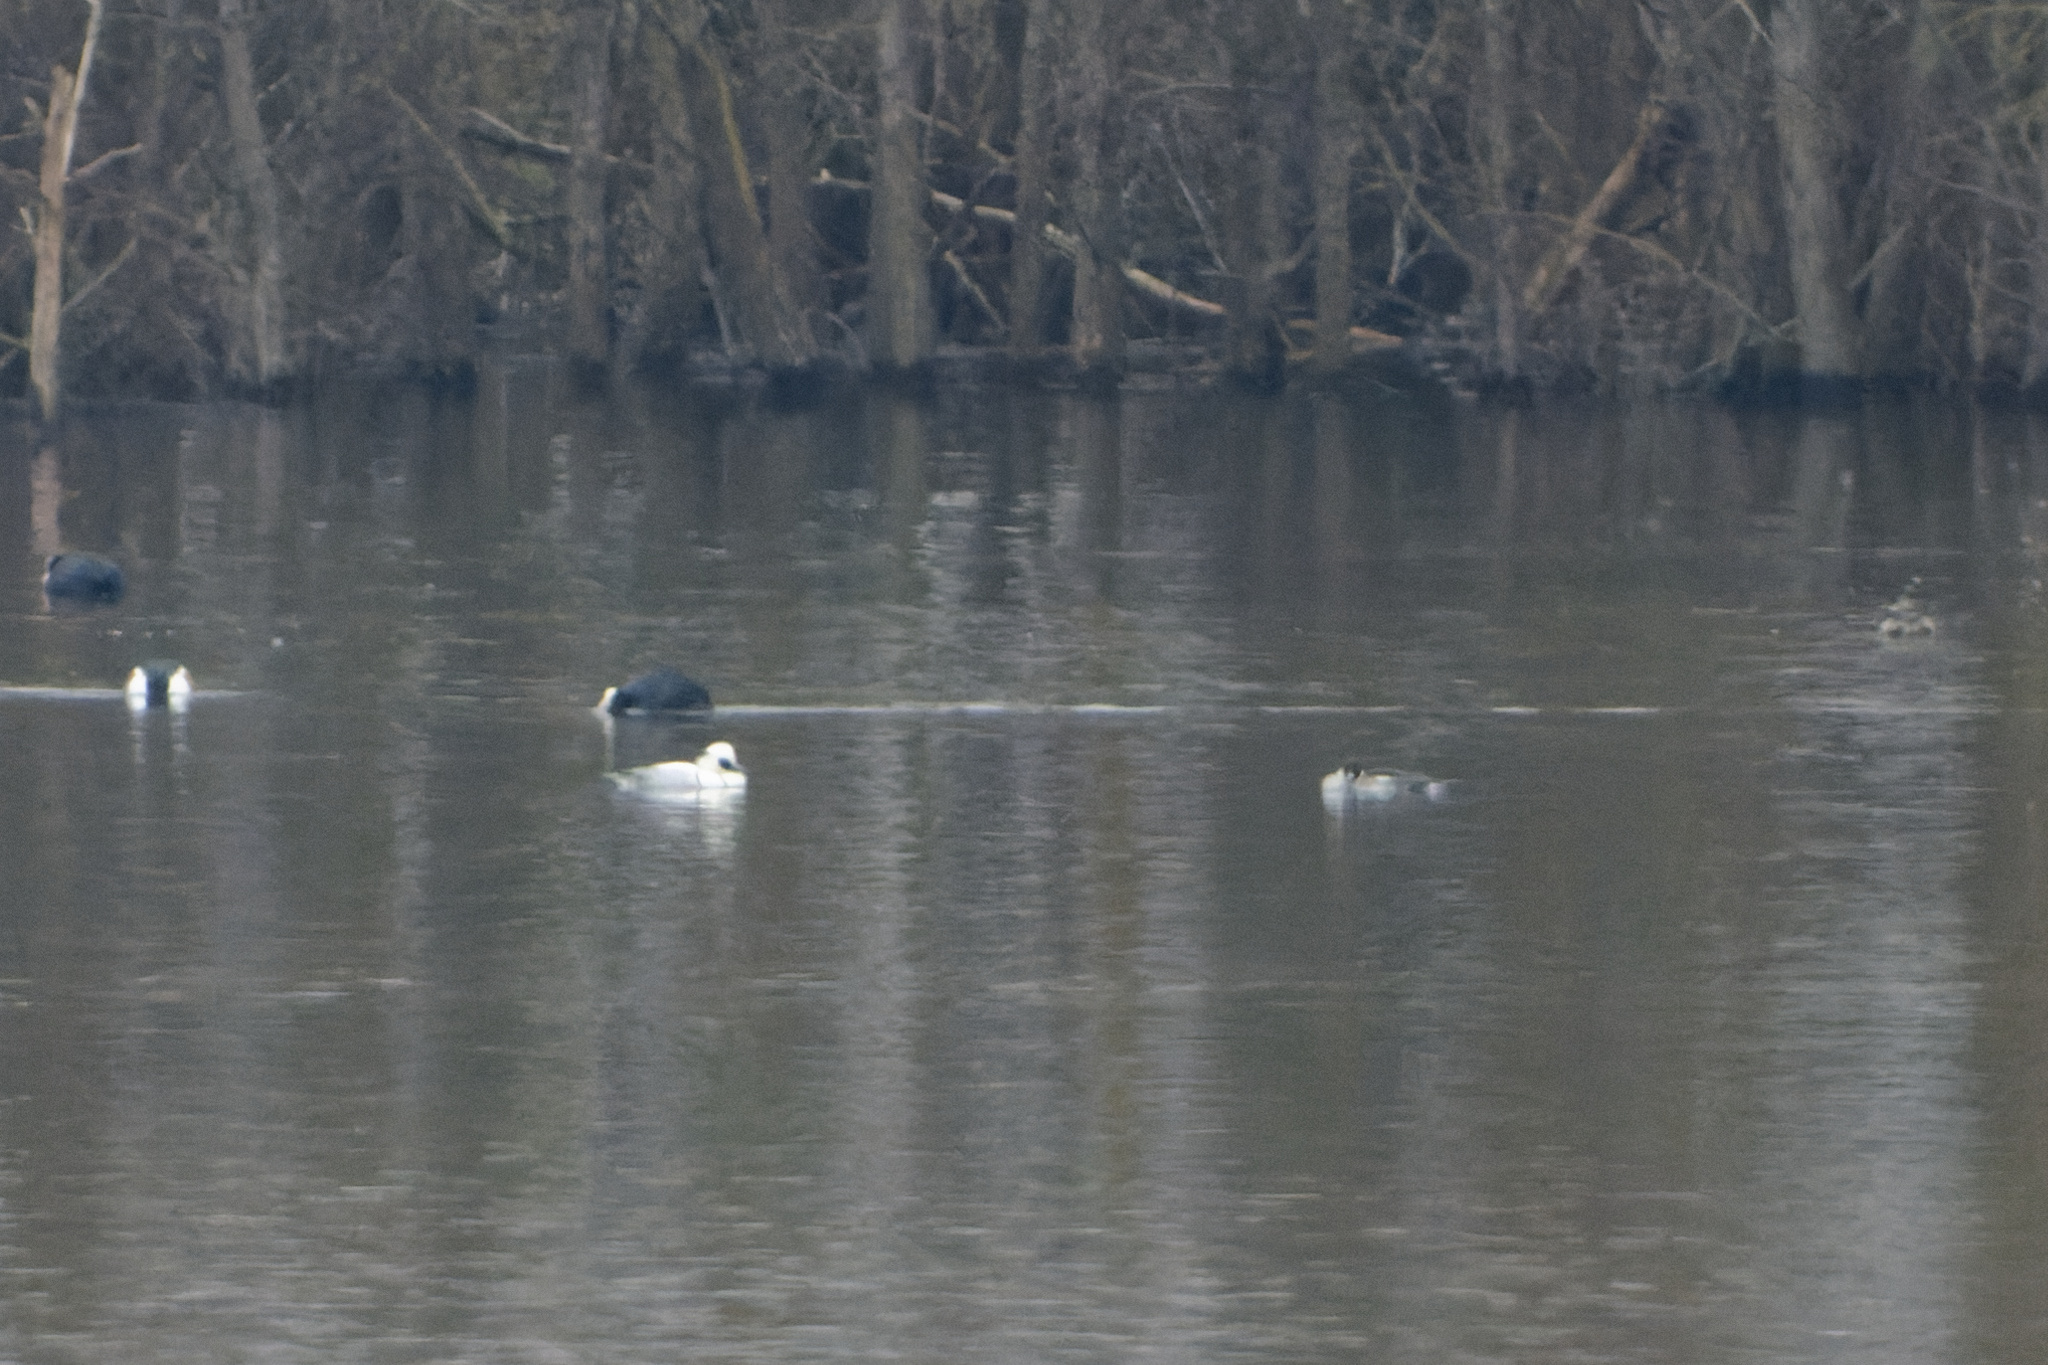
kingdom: Animalia
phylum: Chordata
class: Aves
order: Anseriformes
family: Anatidae
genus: Mergellus
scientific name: Mergellus albellus
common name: Smew
